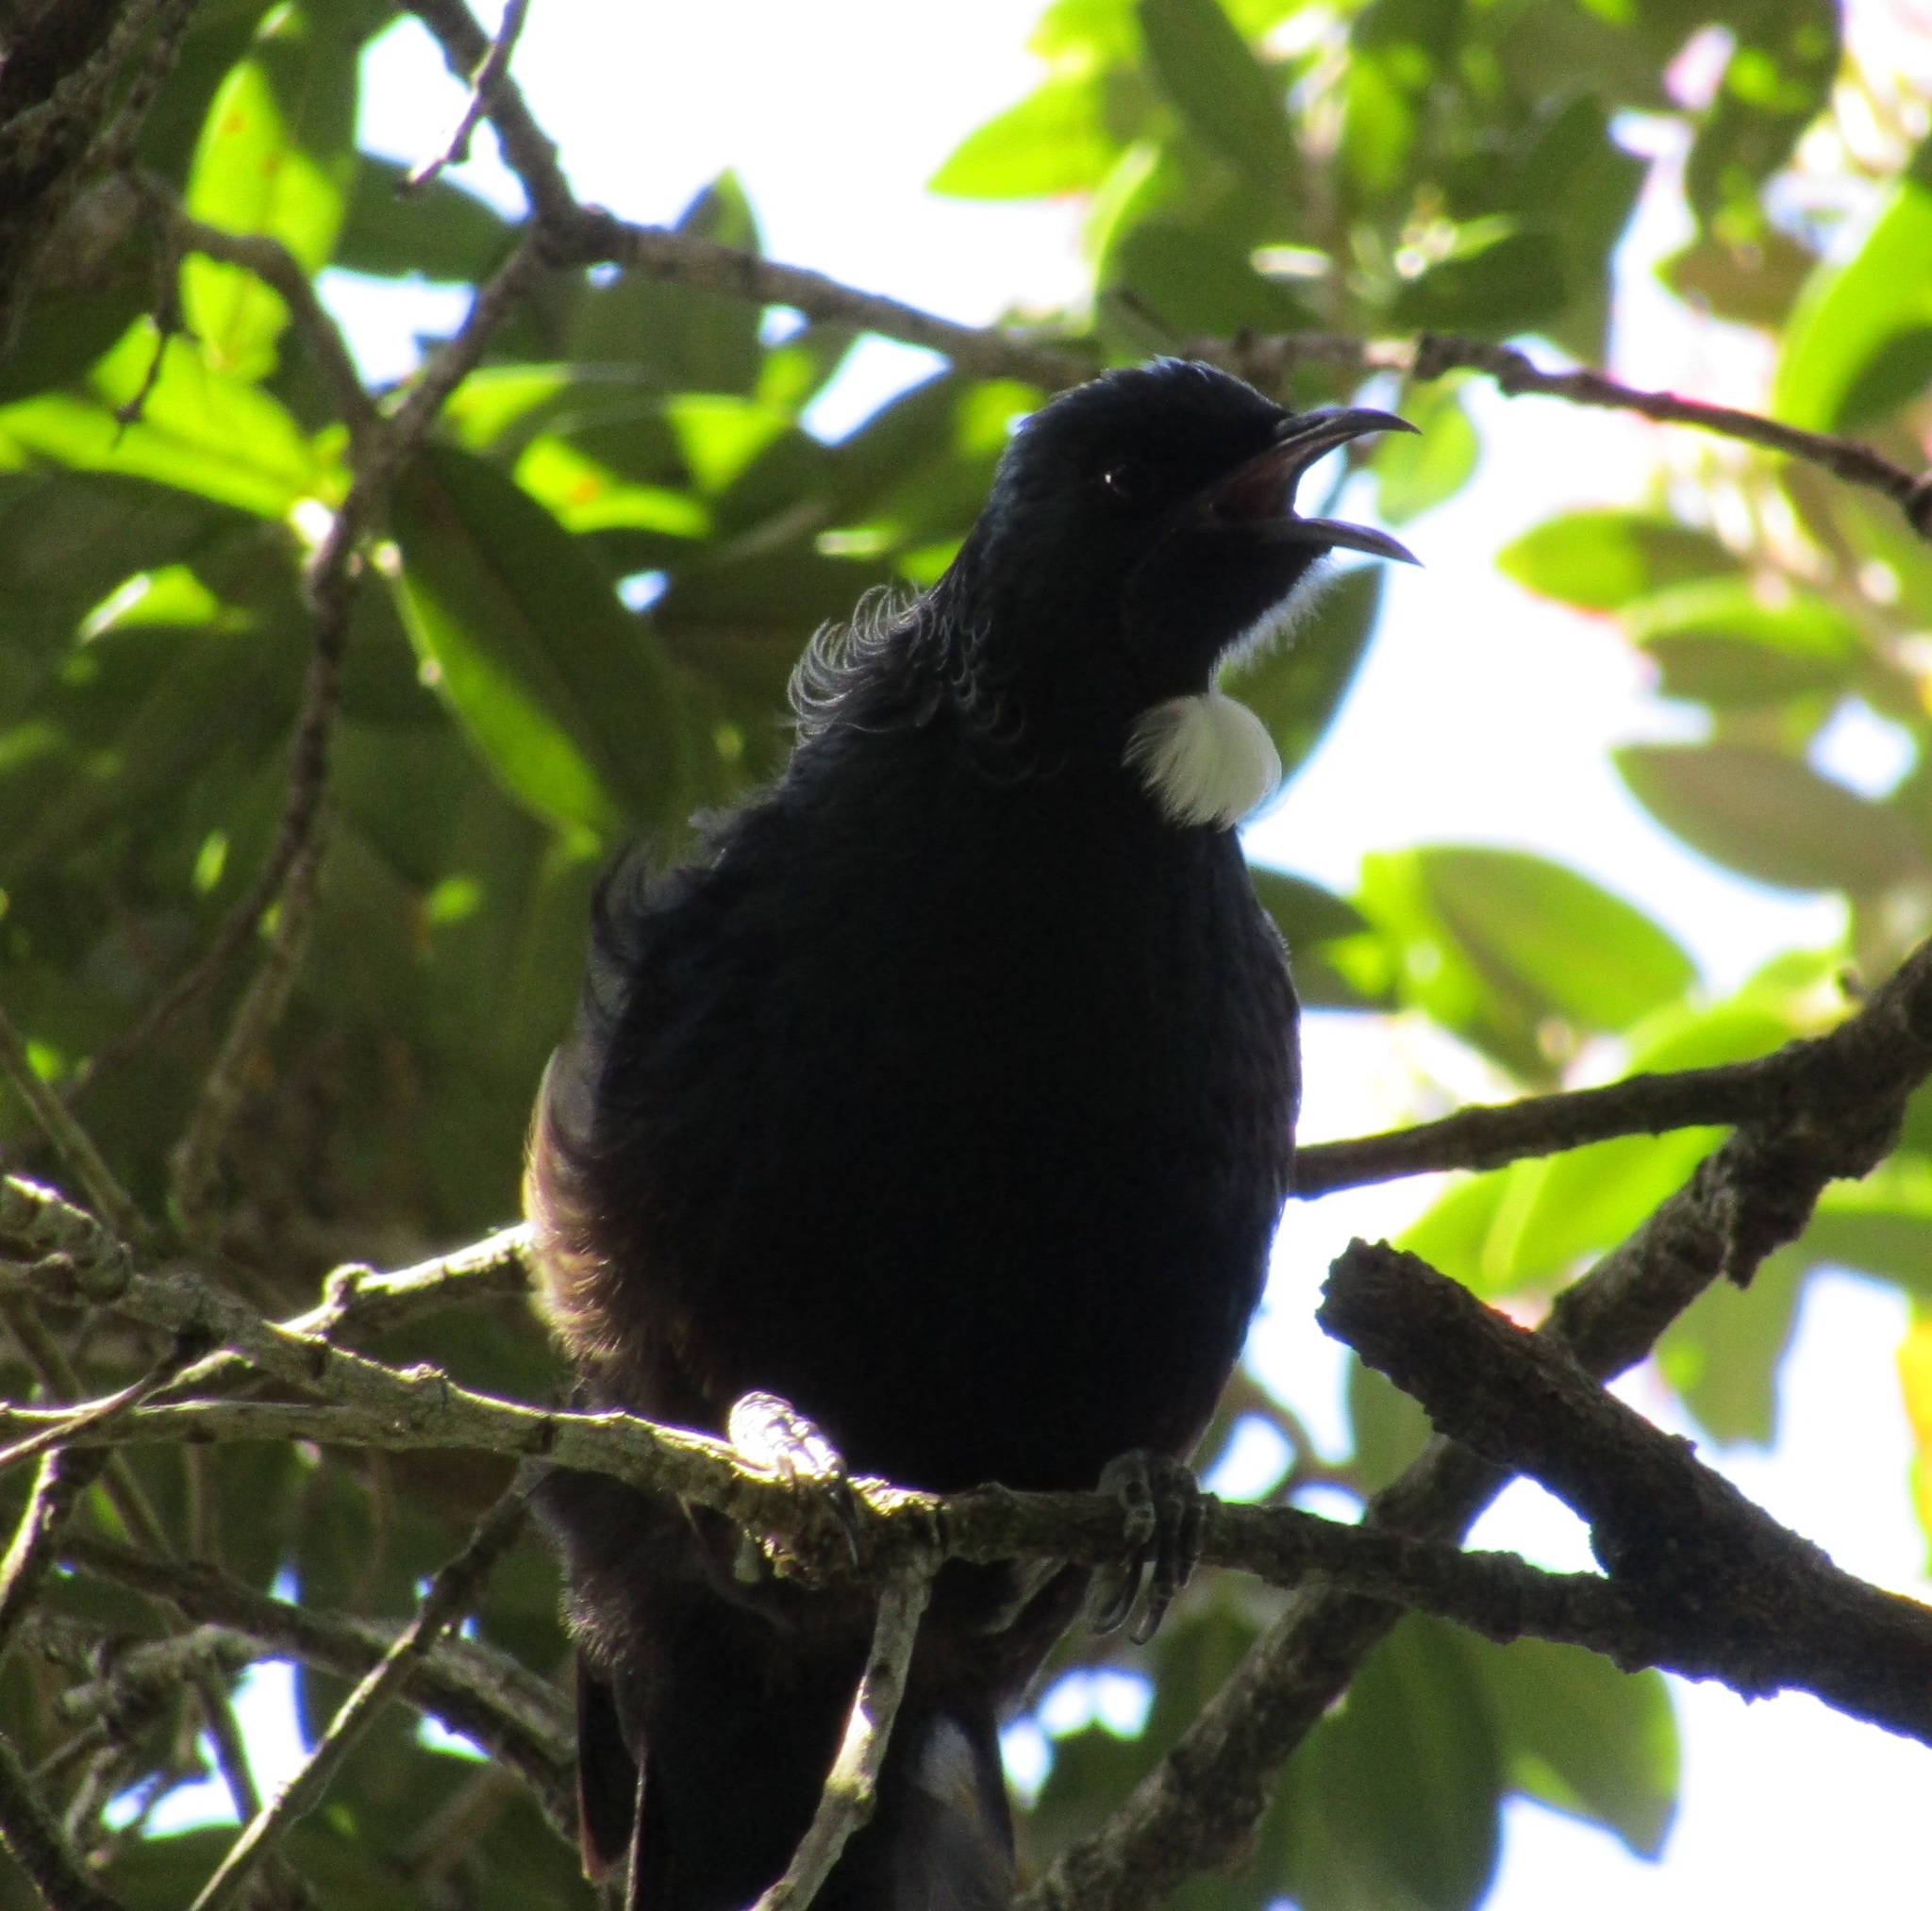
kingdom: Animalia
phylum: Chordata
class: Aves
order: Passeriformes
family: Meliphagidae
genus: Prosthemadera
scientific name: Prosthemadera novaeseelandiae
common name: Tui
